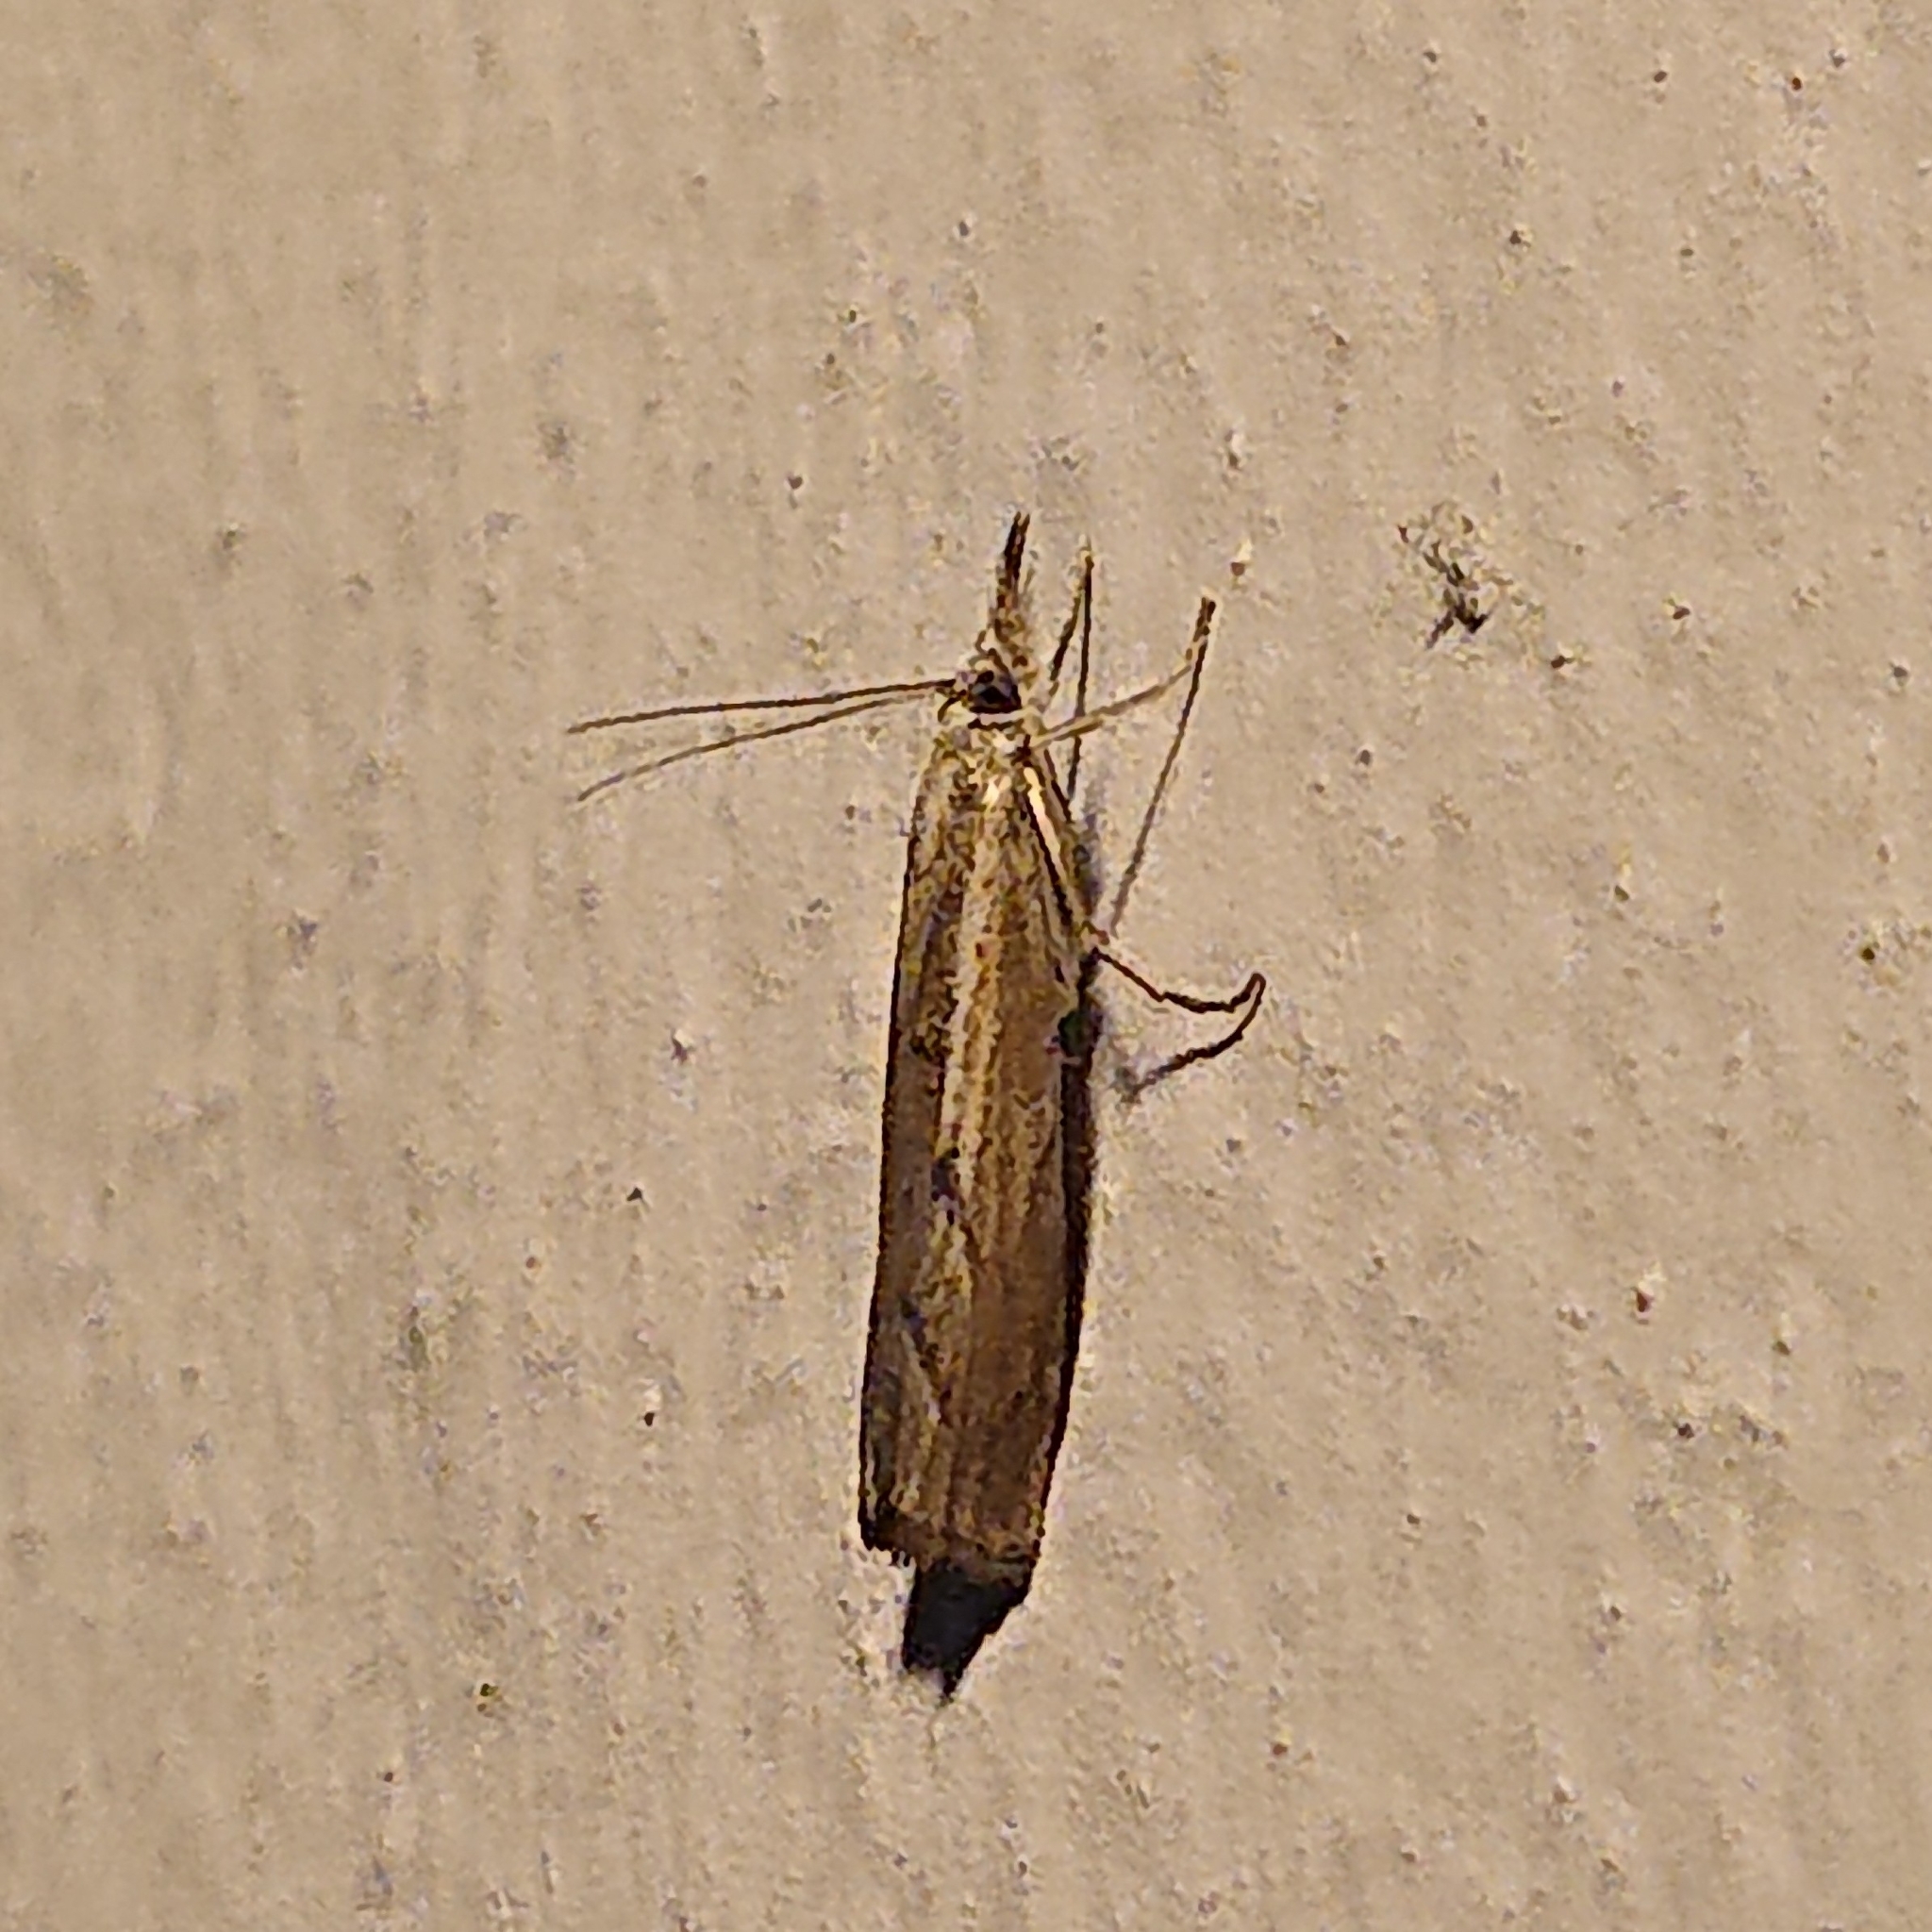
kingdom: Animalia
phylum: Arthropoda
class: Insecta
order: Lepidoptera
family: Crambidae
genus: Agriphila
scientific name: Agriphila geniculea
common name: Elbow-stripe grass-veneer
